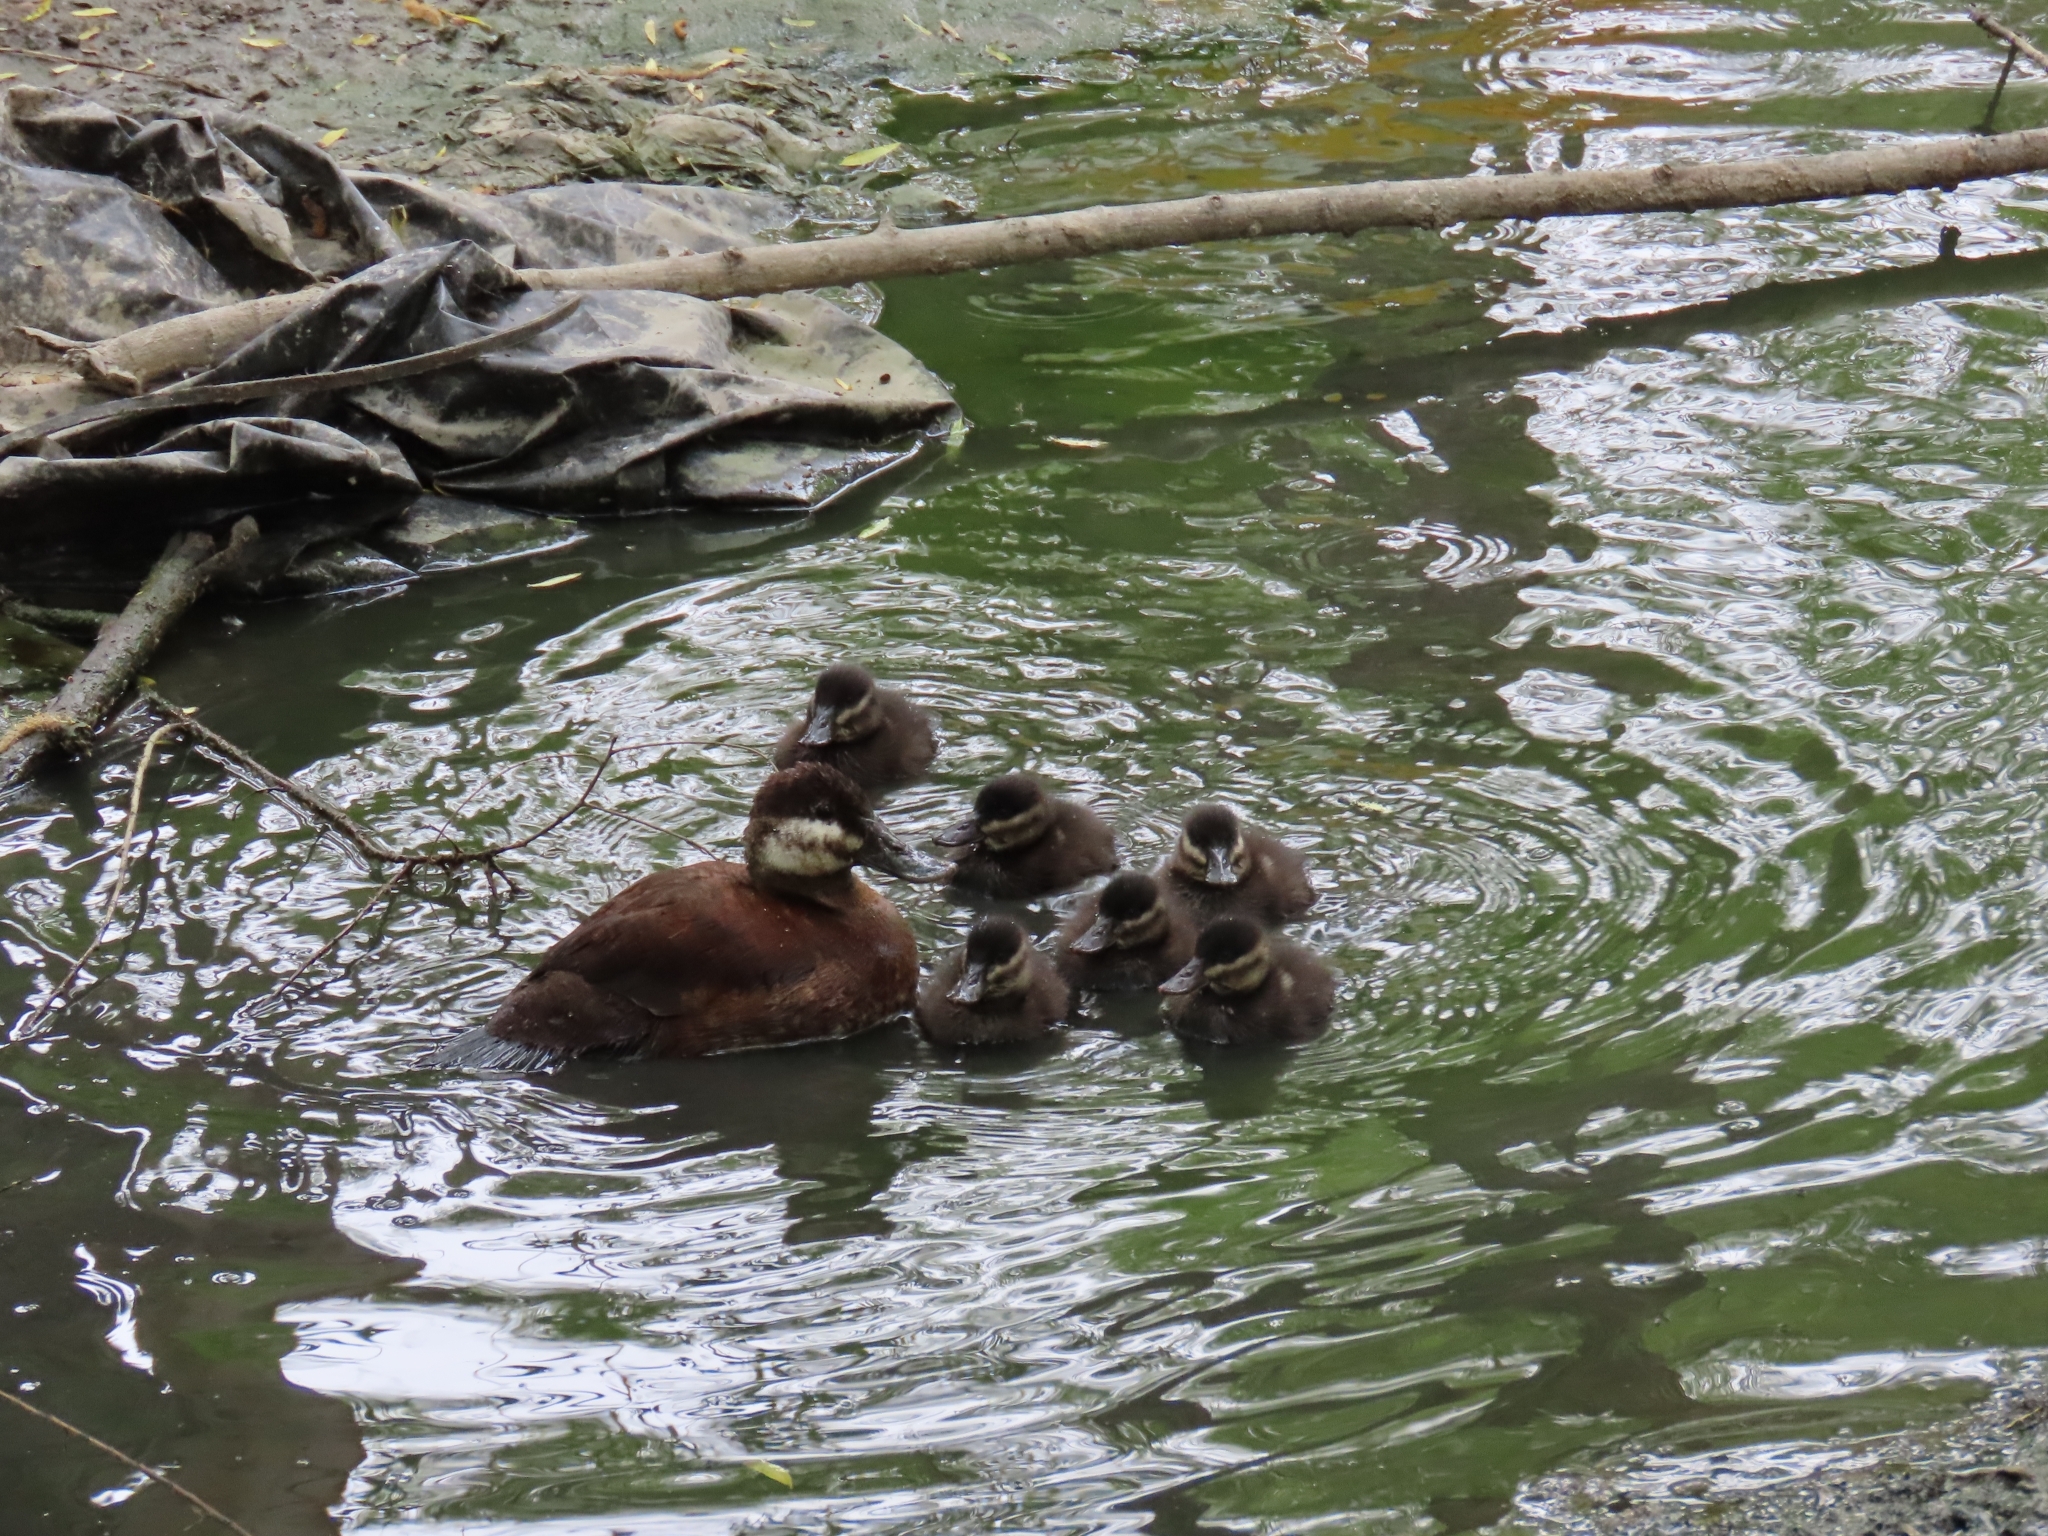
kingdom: Animalia
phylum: Chordata
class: Aves
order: Anseriformes
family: Anatidae
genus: Oxyura
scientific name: Oxyura jamaicensis
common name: Ruddy duck
